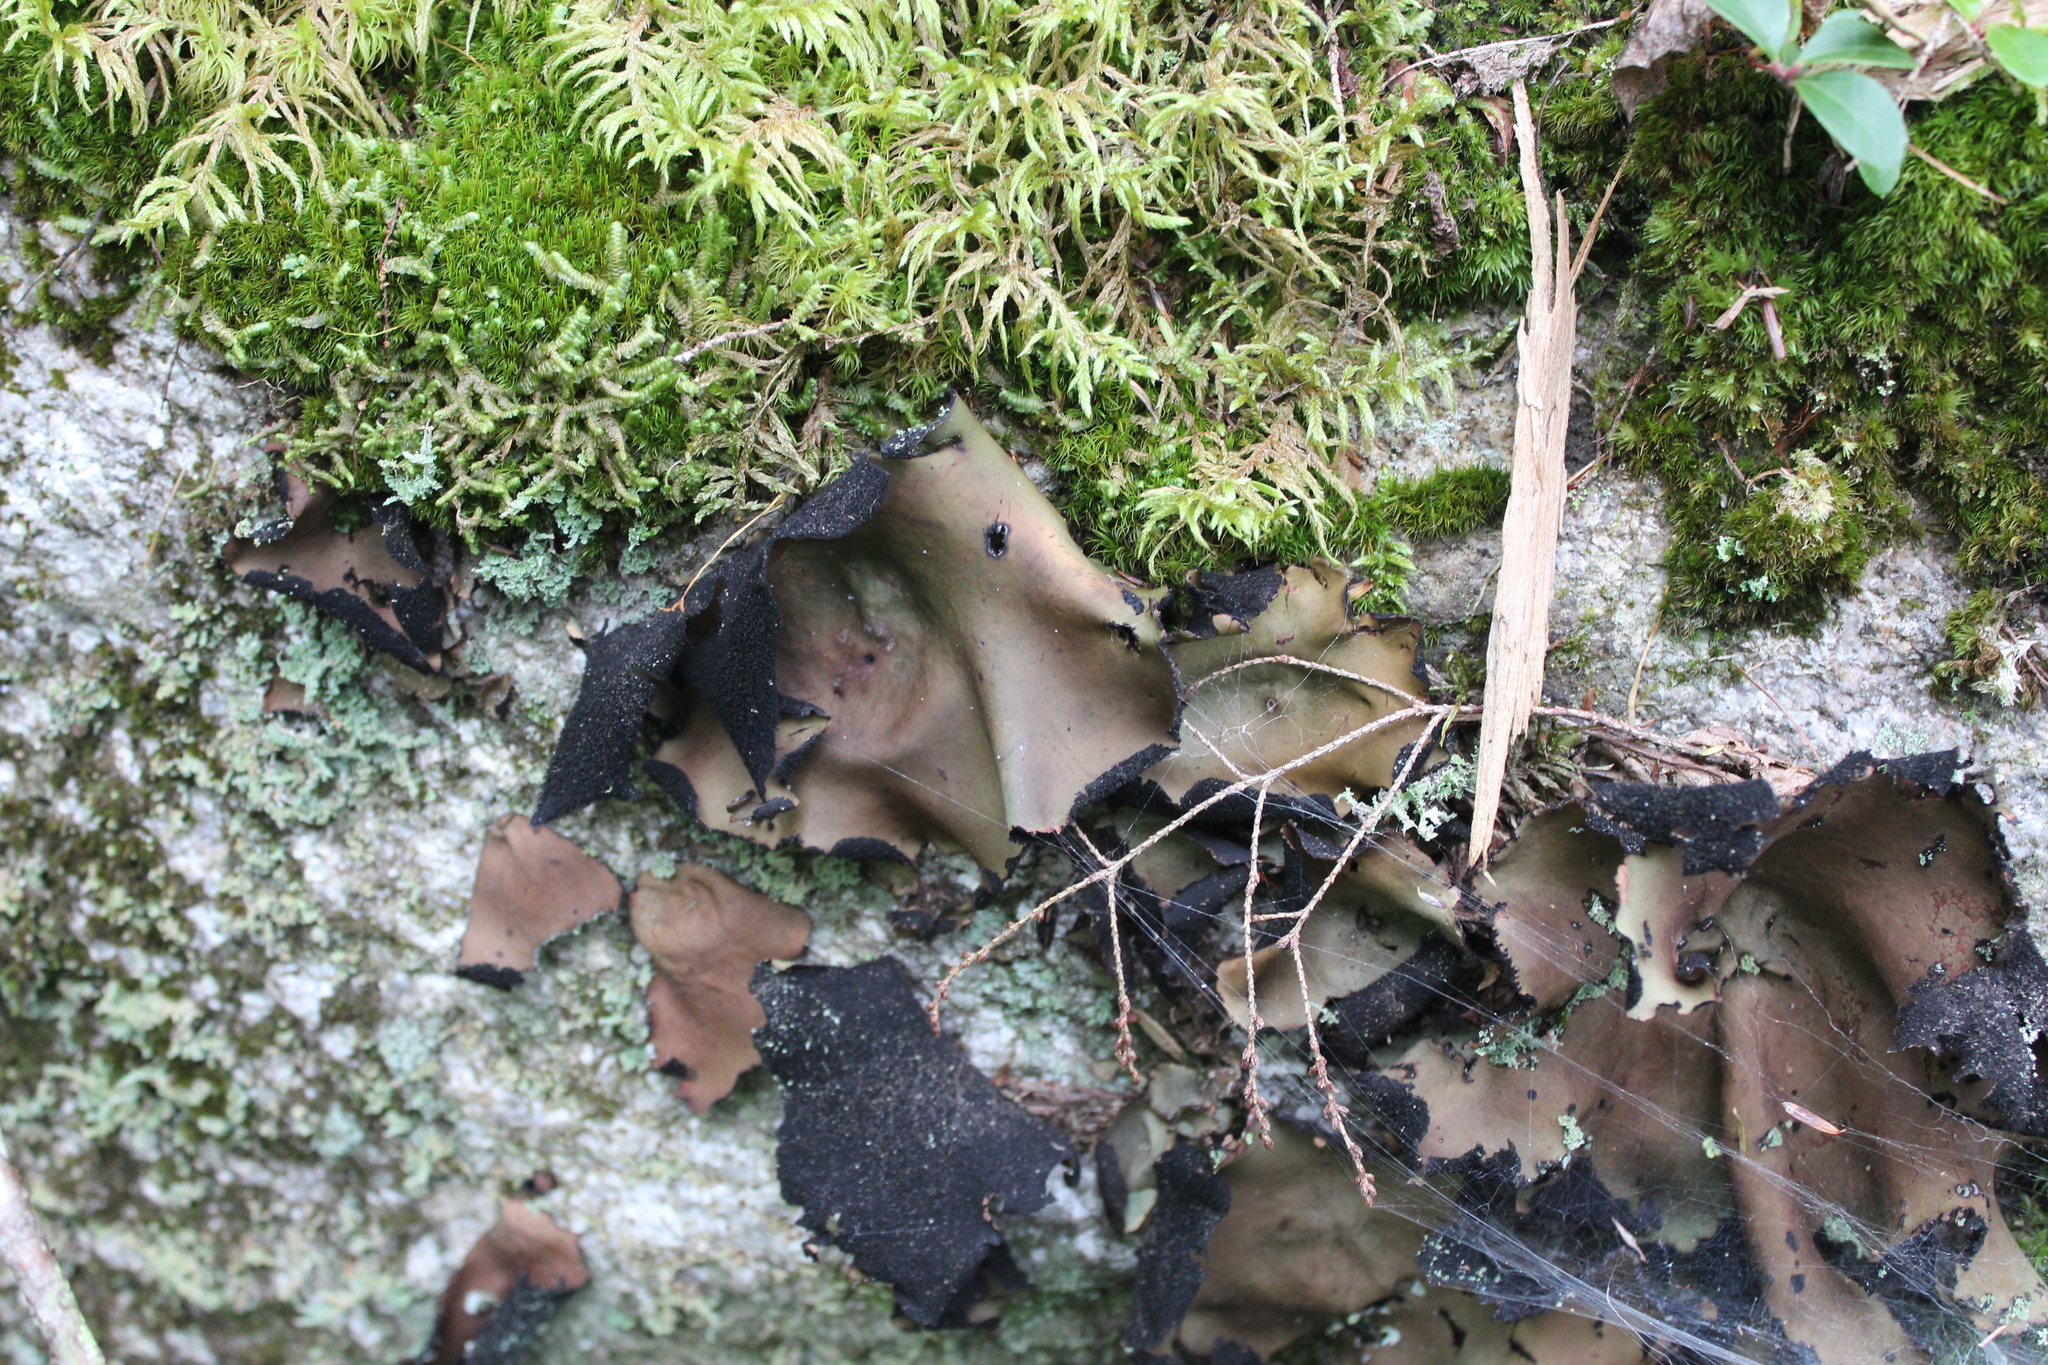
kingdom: Fungi
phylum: Ascomycota
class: Lecanoromycetes
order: Umbilicariales
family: Umbilicariaceae
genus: Umbilicaria
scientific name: Umbilicaria mammulata
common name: Smooth rock tripe
